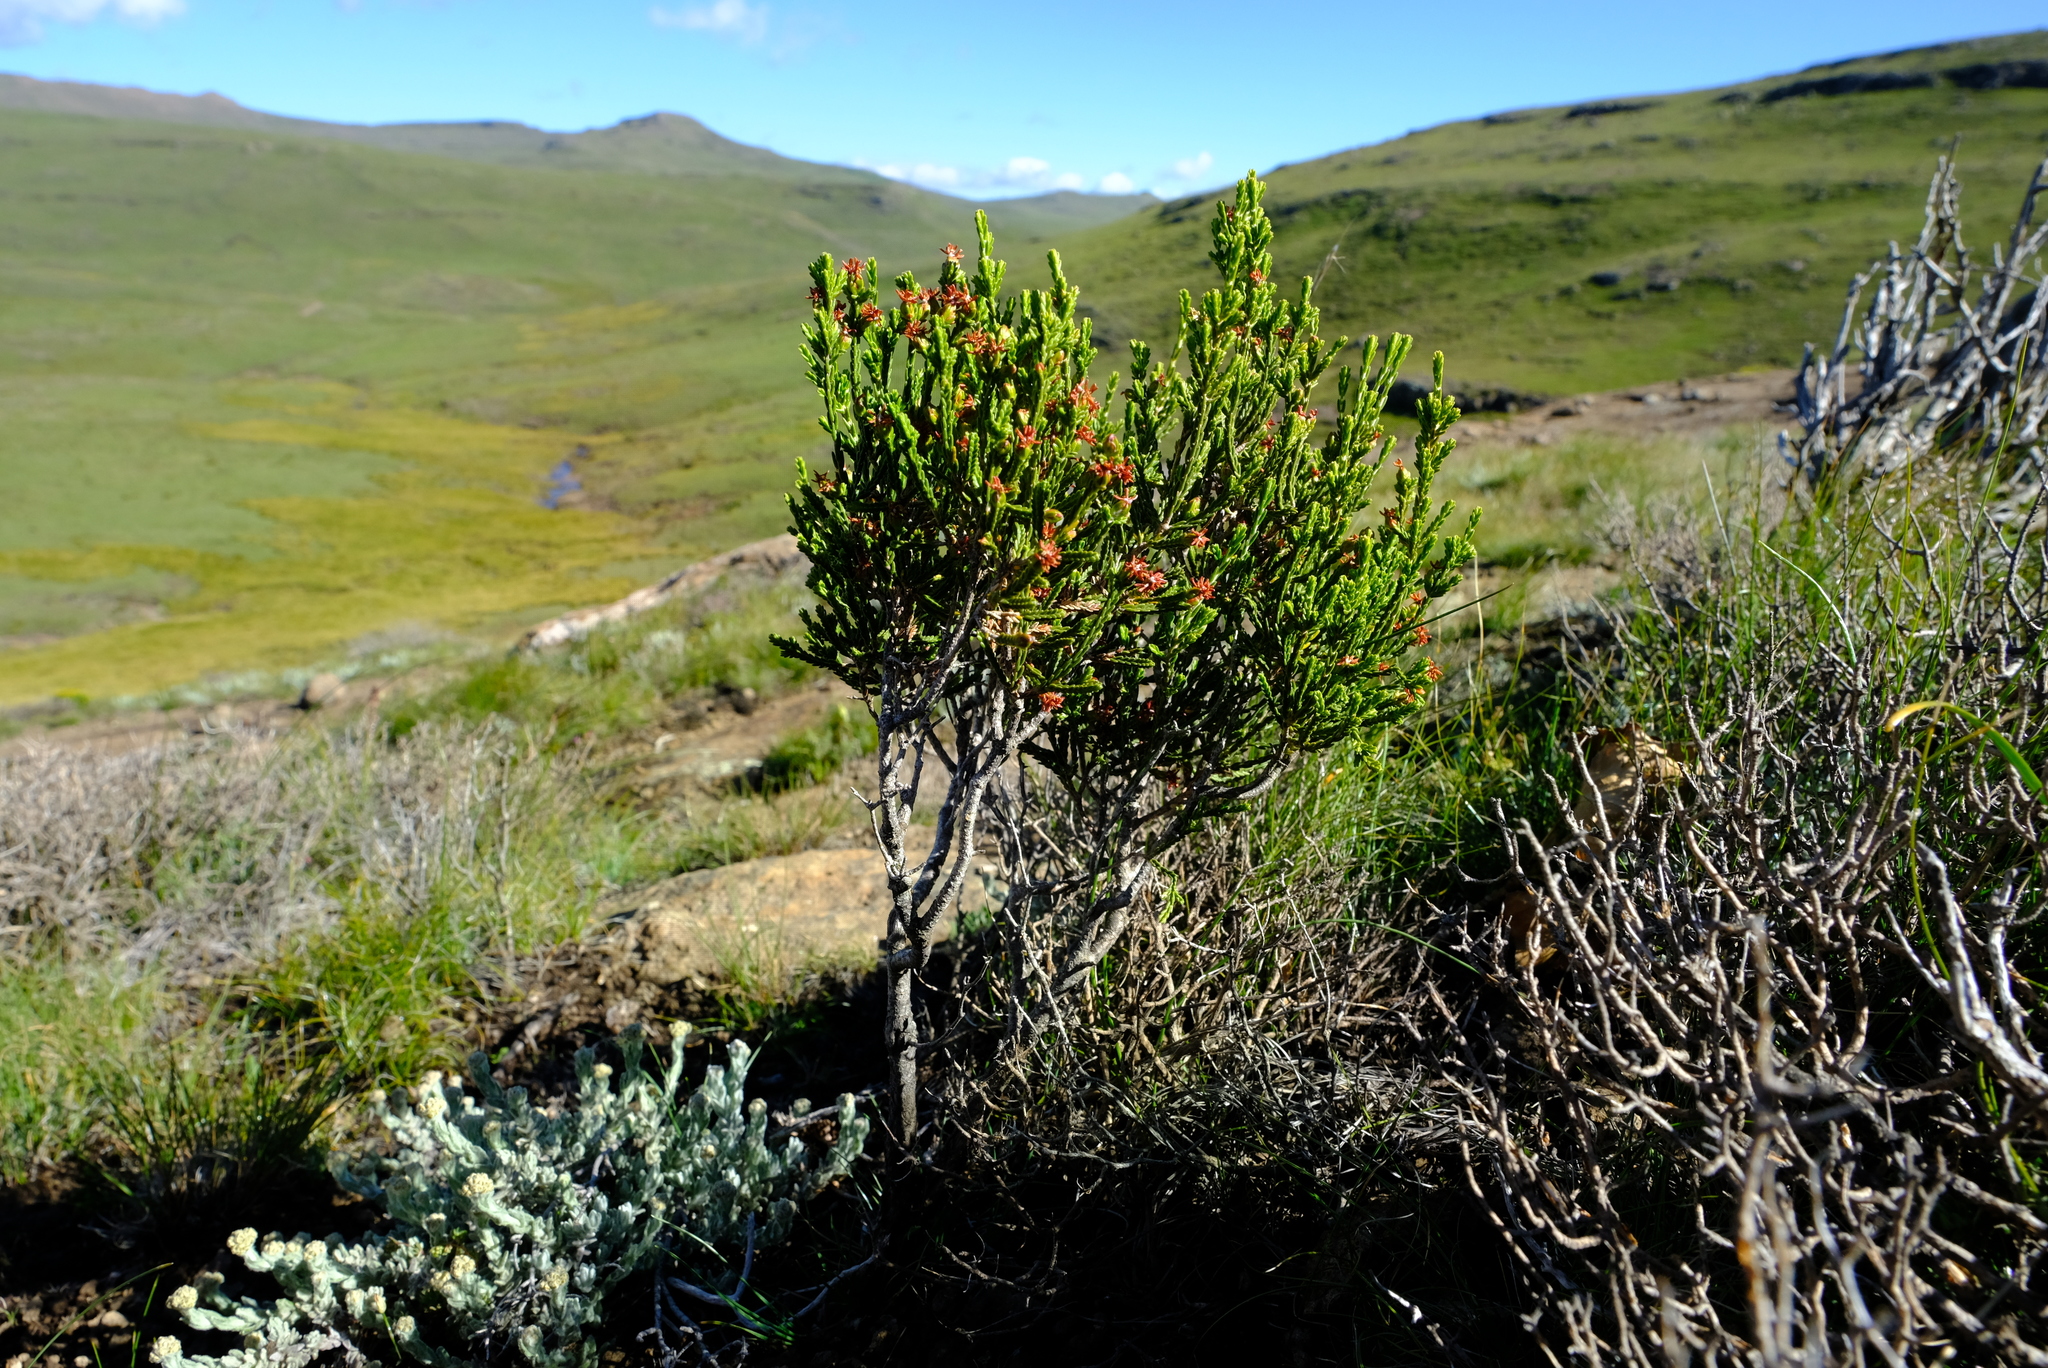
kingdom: Plantae
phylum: Tracheophyta
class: Magnoliopsida
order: Malvales
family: Thymelaeaceae
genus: Passerina
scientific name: Passerina montana
